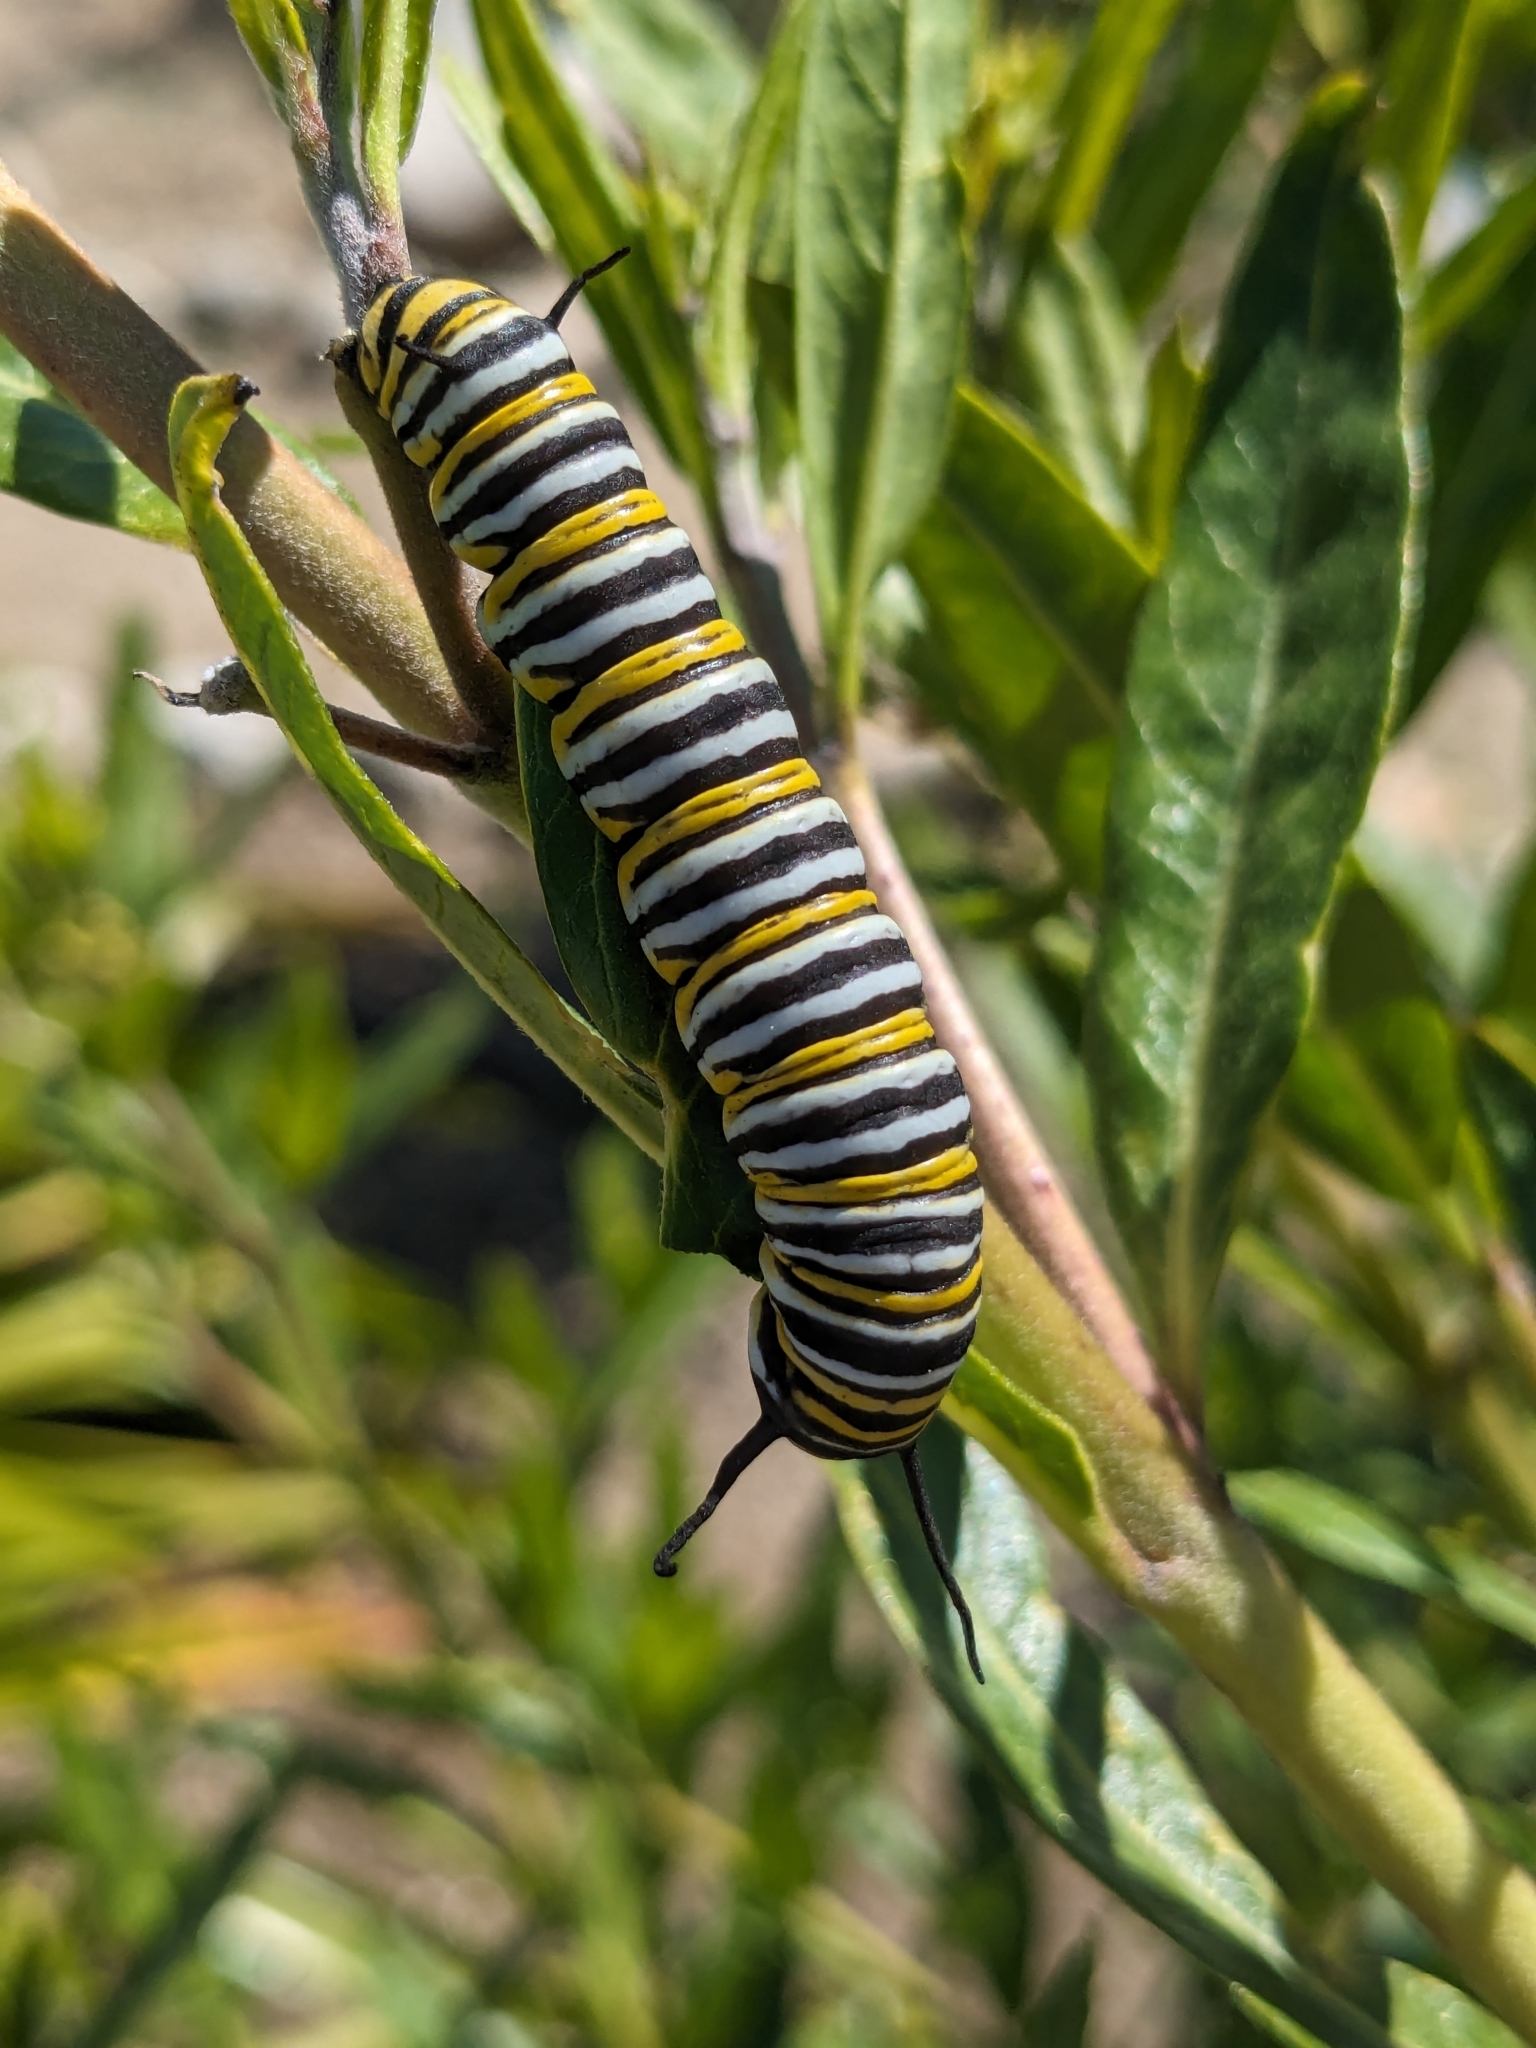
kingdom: Animalia
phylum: Arthropoda
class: Insecta
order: Lepidoptera
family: Nymphalidae
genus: Danaus
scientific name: Danaus plexippus
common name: Monarch
